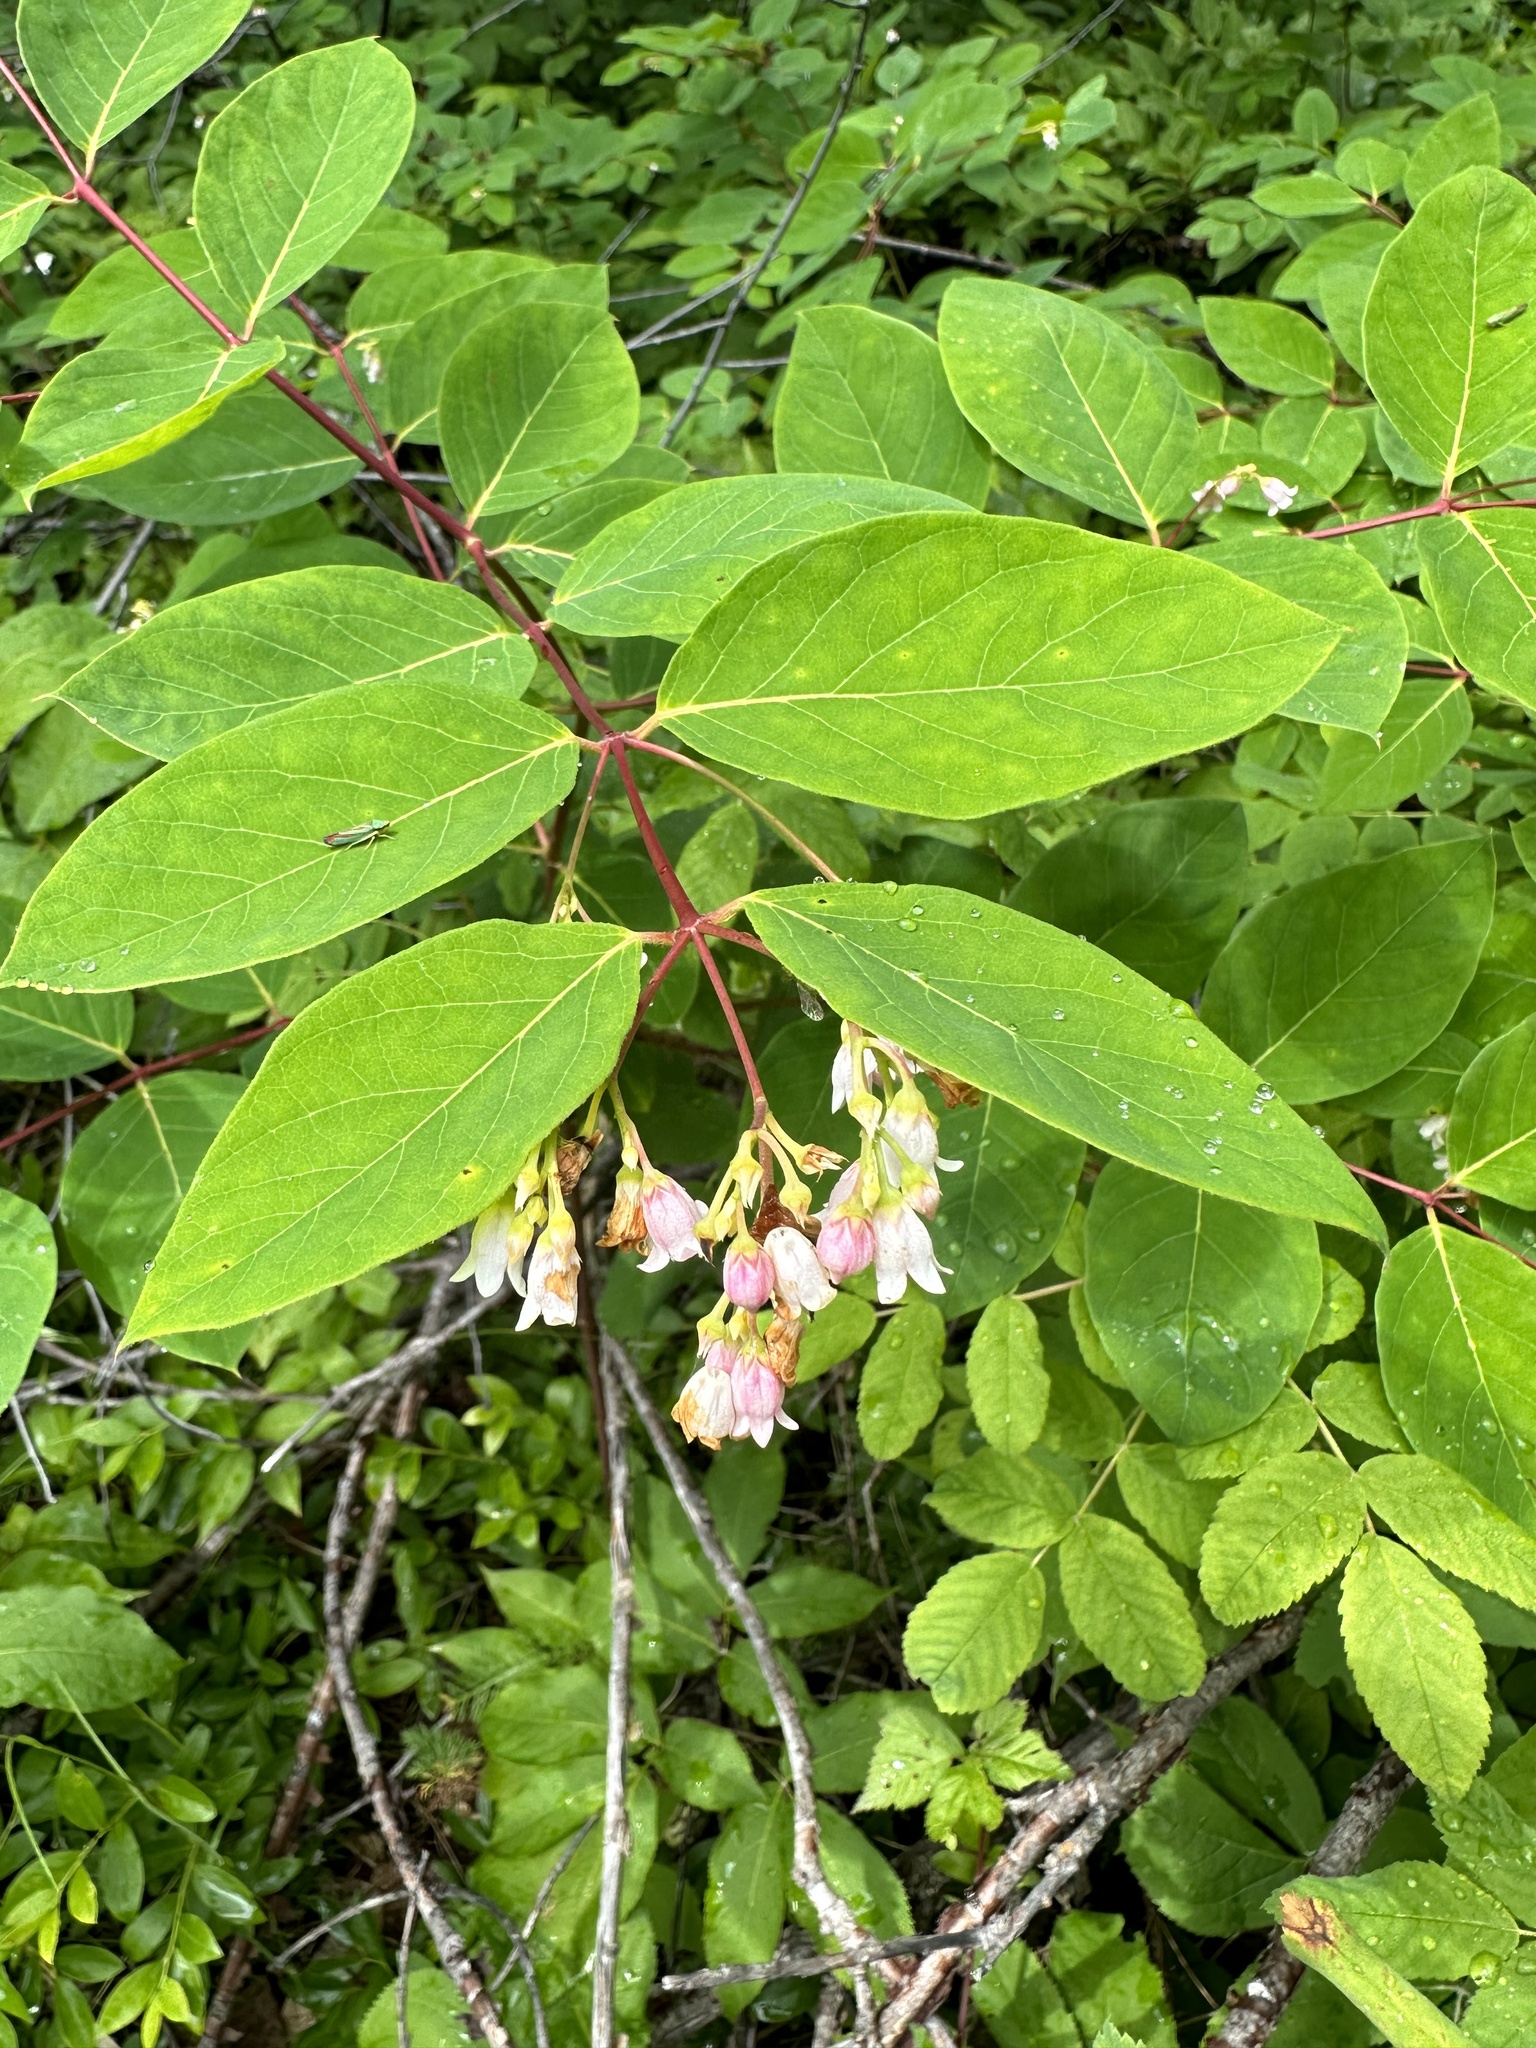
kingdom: Plantae
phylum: Tracheophyta
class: Magnoliopsida
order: Gentianales
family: Apocynaceae
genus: Apocynum
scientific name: Apocynum androsaemifolium
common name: Spreading dogbane
